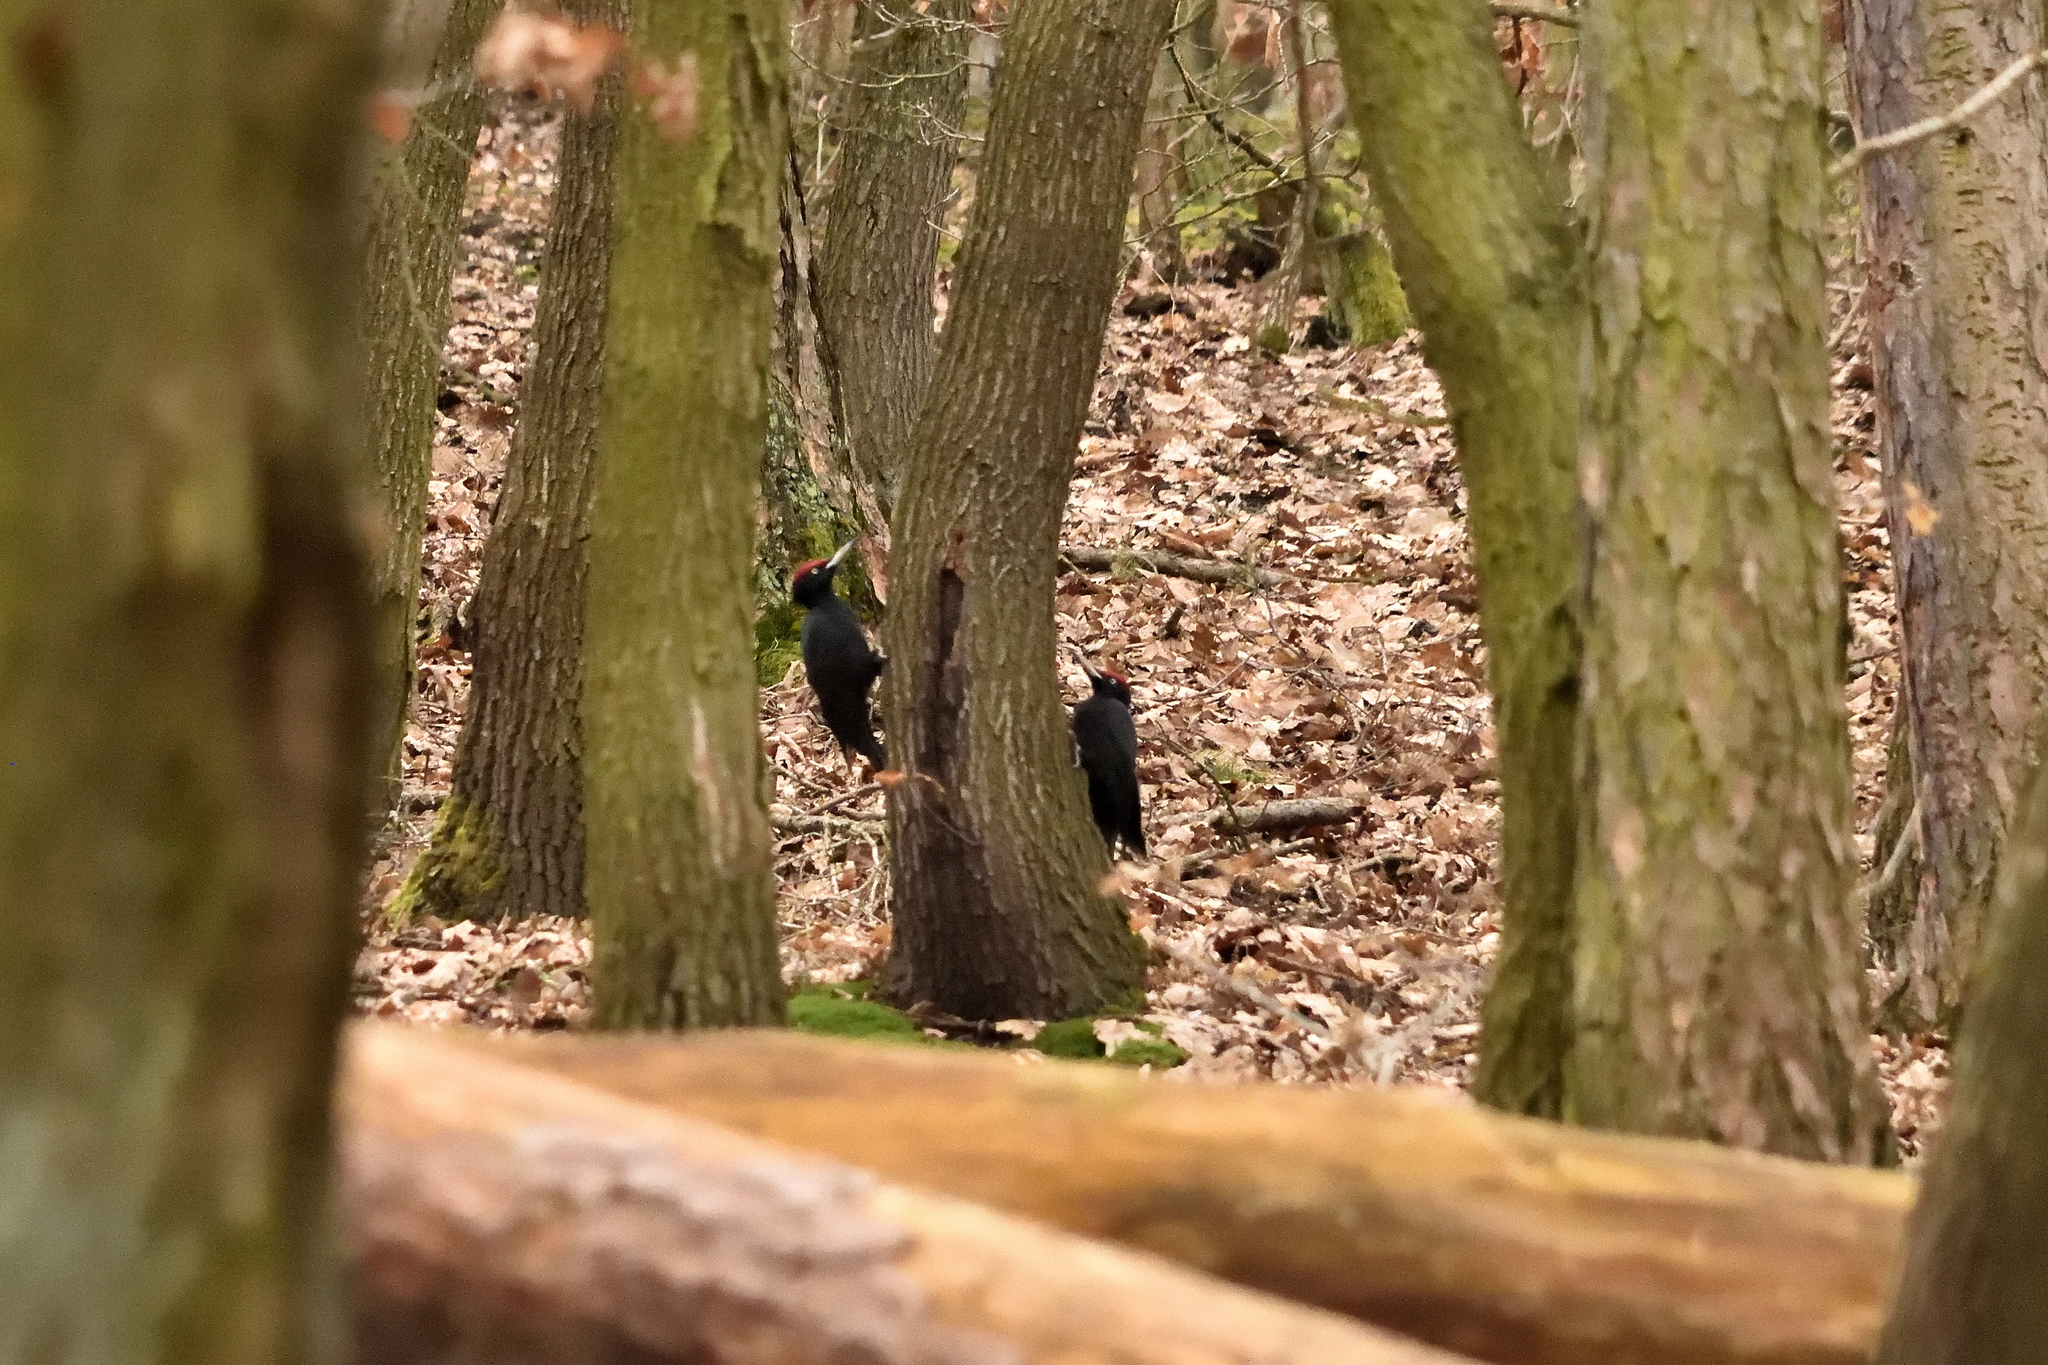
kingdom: Animalia
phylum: Chordata
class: Aves
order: Piciformes
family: Picidae
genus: Dryocopus
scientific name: Dryocopus martius
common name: Black woodpecker
